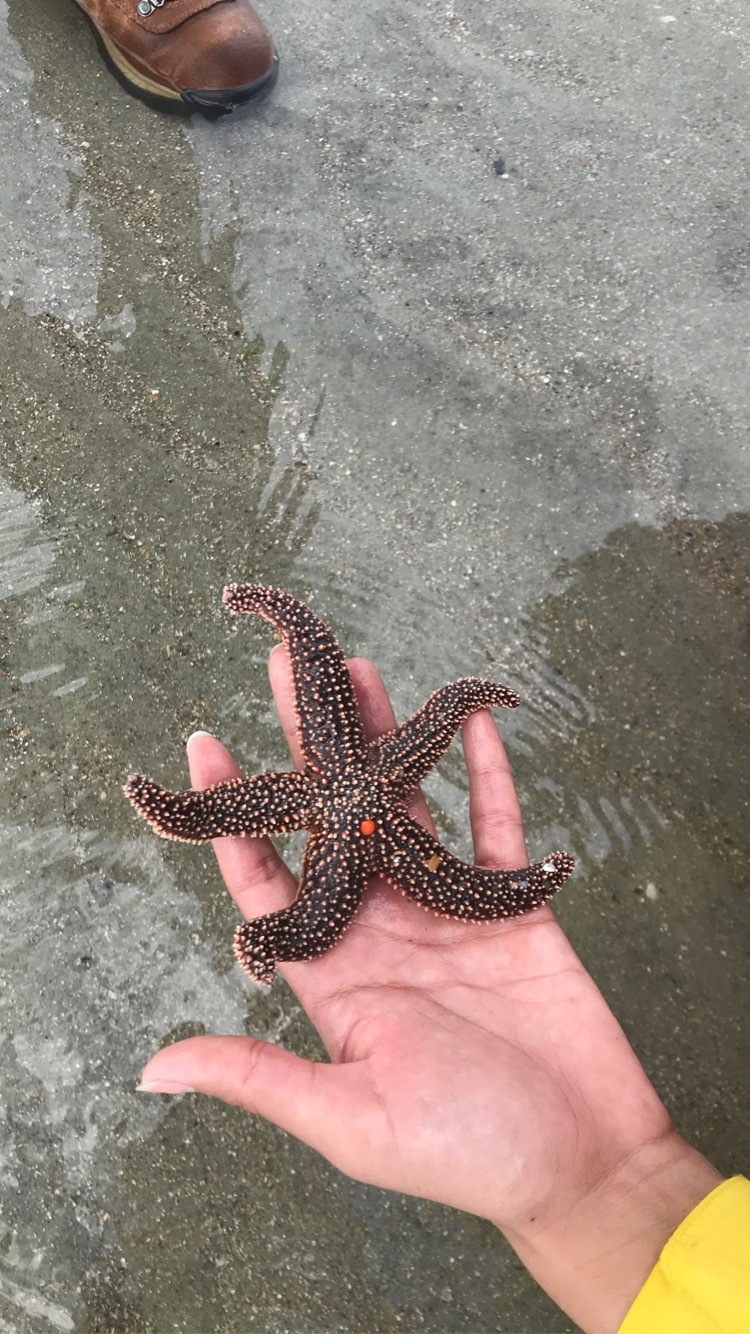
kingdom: Animalia
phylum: Echinodermata
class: Asteroidea
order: Forcipulatida
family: Asteriidae
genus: Asterias
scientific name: Asterias forbesi
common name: Forbes's sea star
